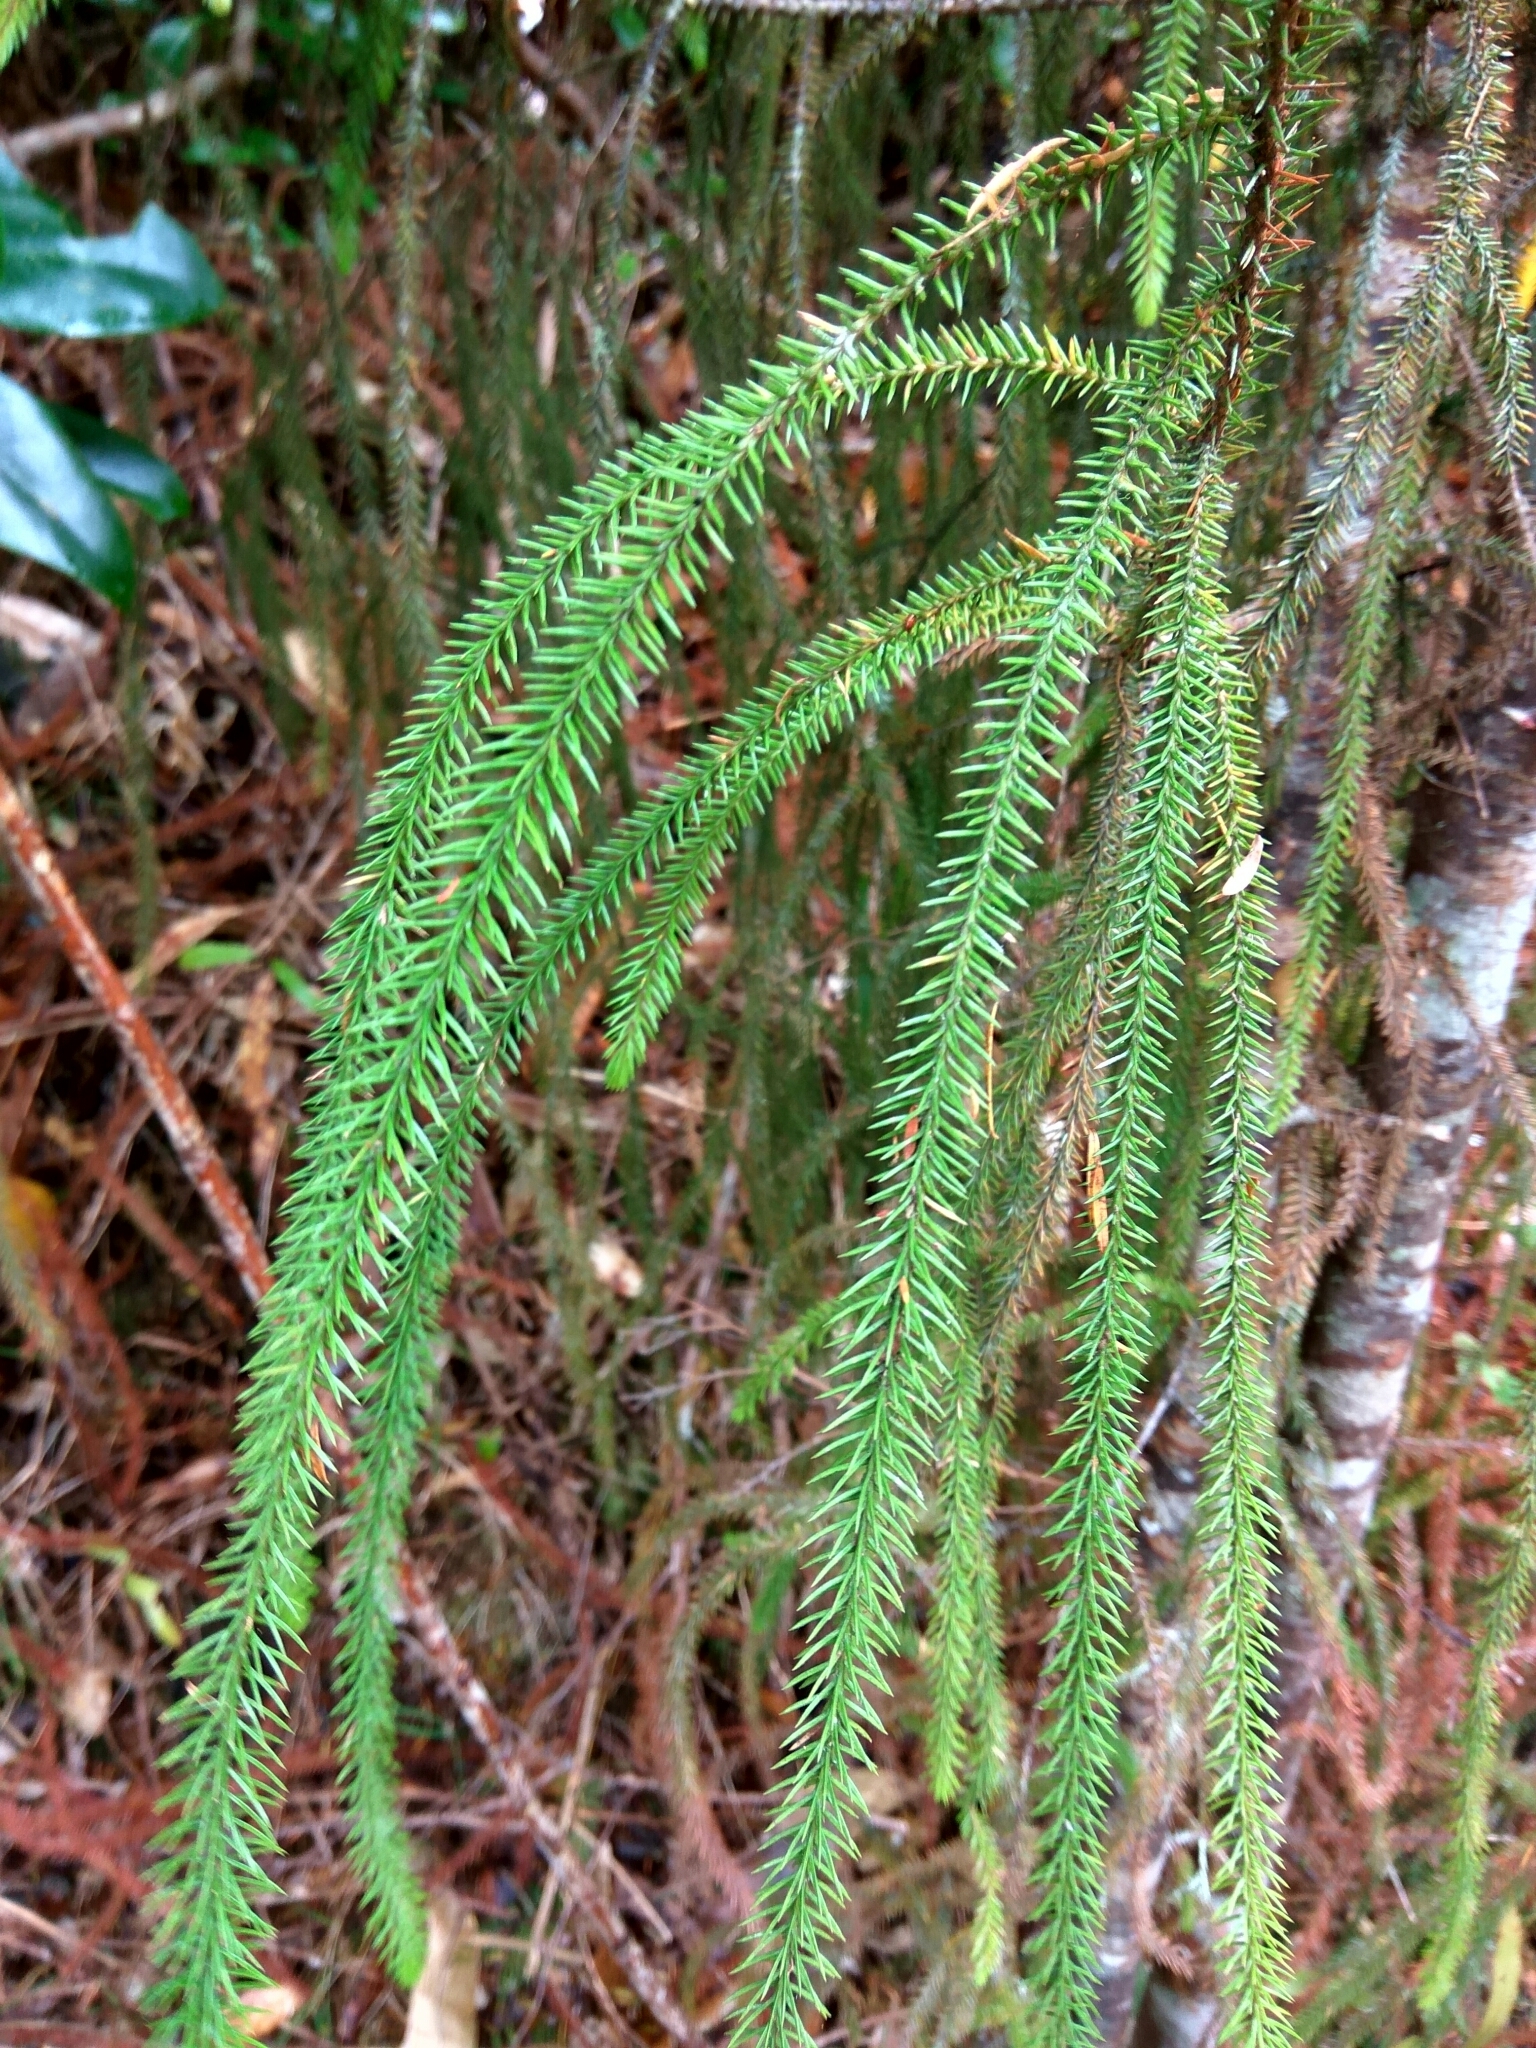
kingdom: Plantae
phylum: Tracheophyta
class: Pinopsida
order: Pinales
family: Podocarpaceae
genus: Dacrydium
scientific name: Dacrydium cupressinum
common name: Red pine
